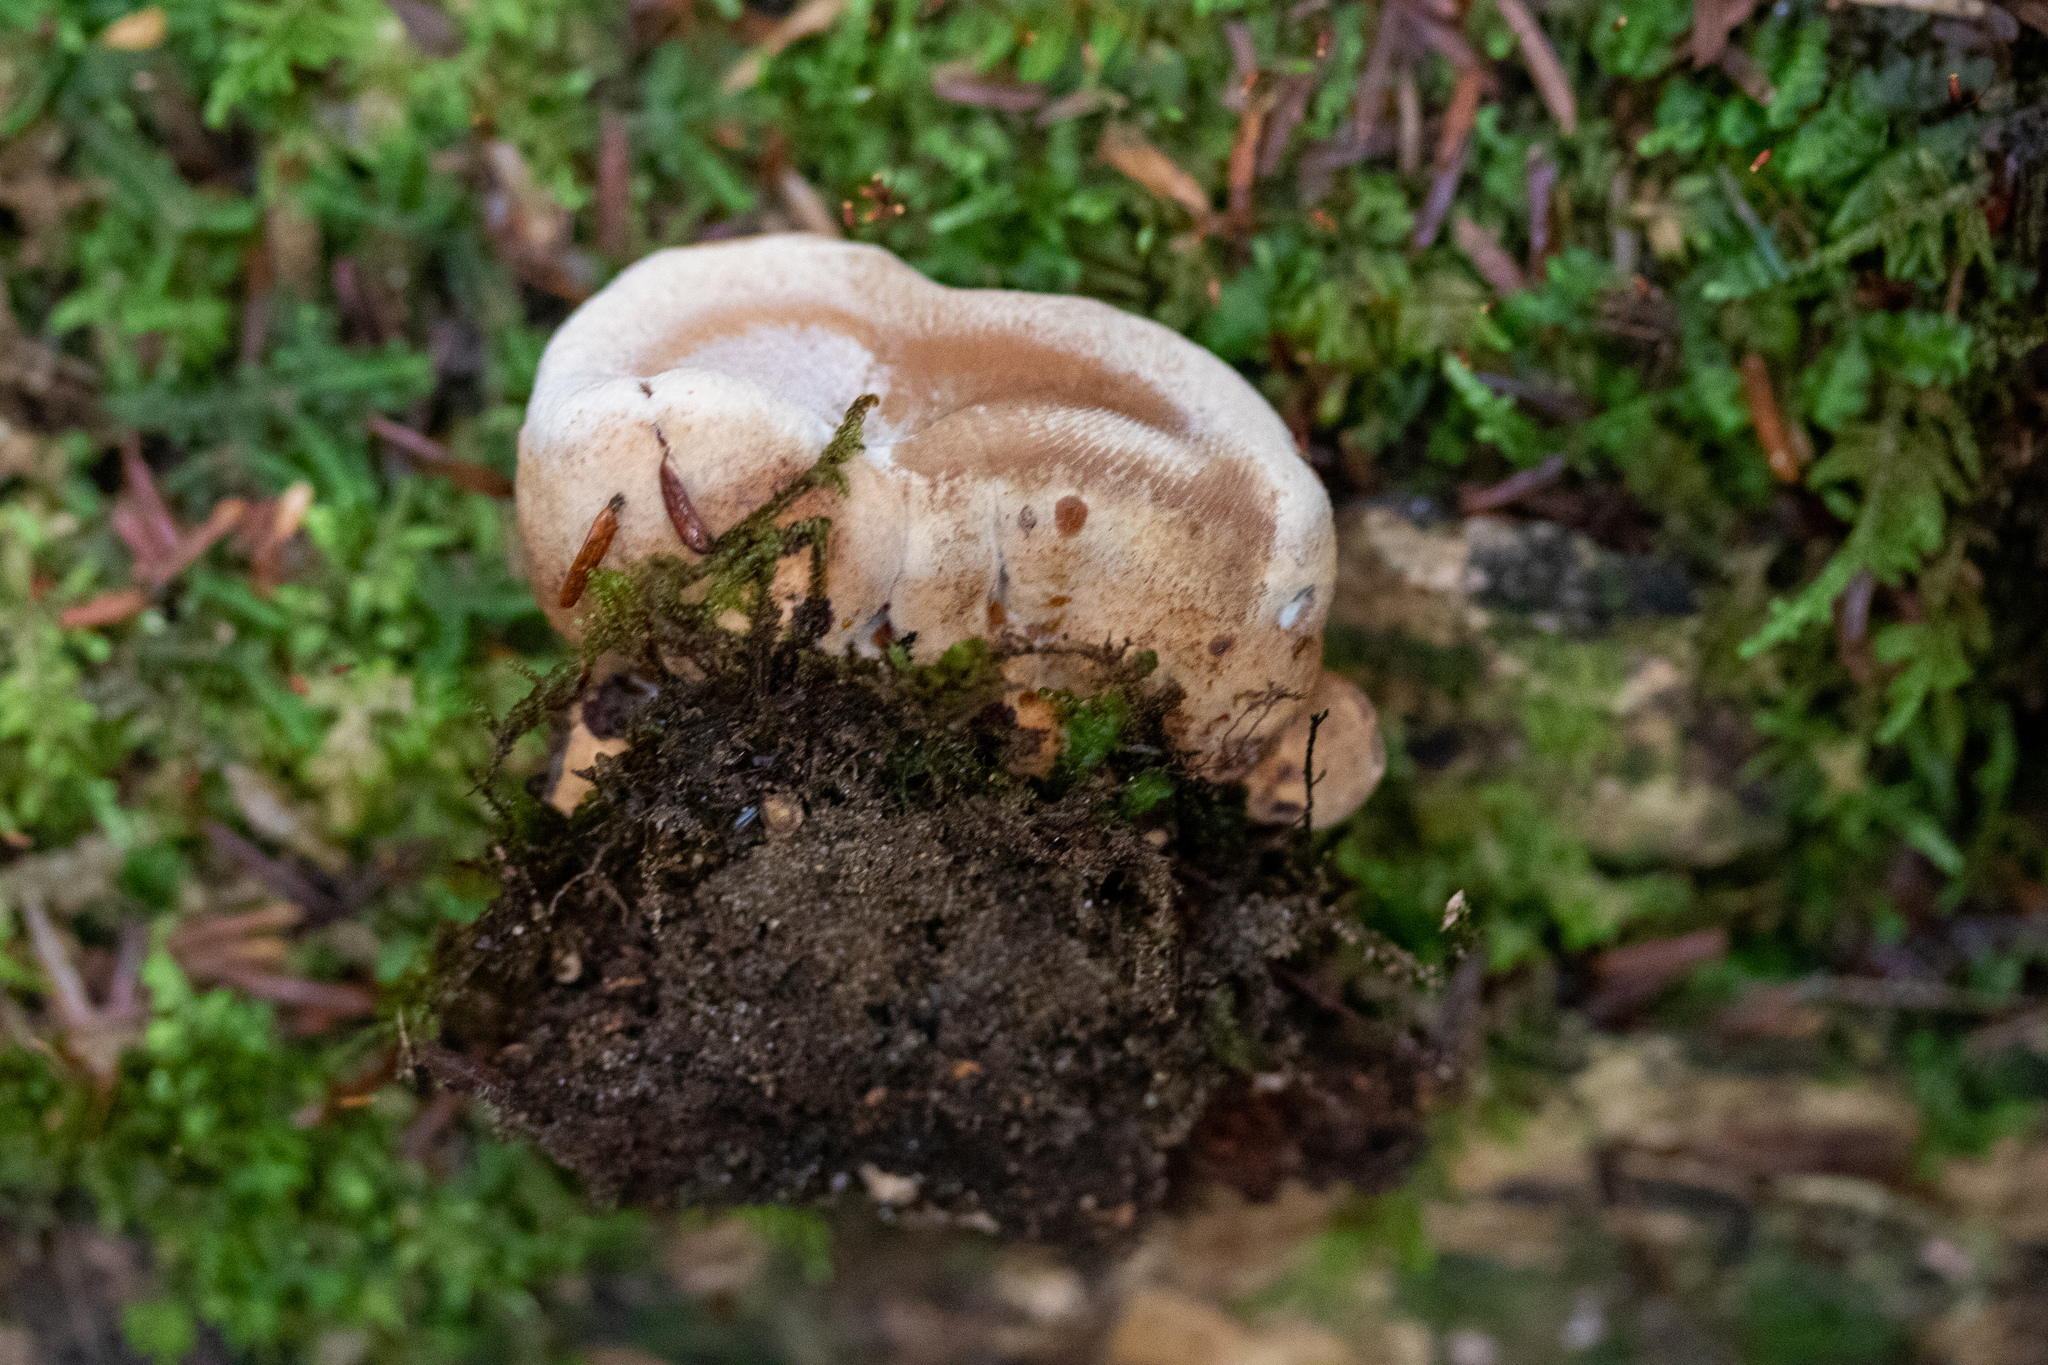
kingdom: Fungi
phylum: Basidiomycota
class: Agaricomycetes
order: Polyporales
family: Ischnodermataceae
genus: Ischnoderma
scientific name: Ischnoderma benzoinum
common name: Benzoin bracket
